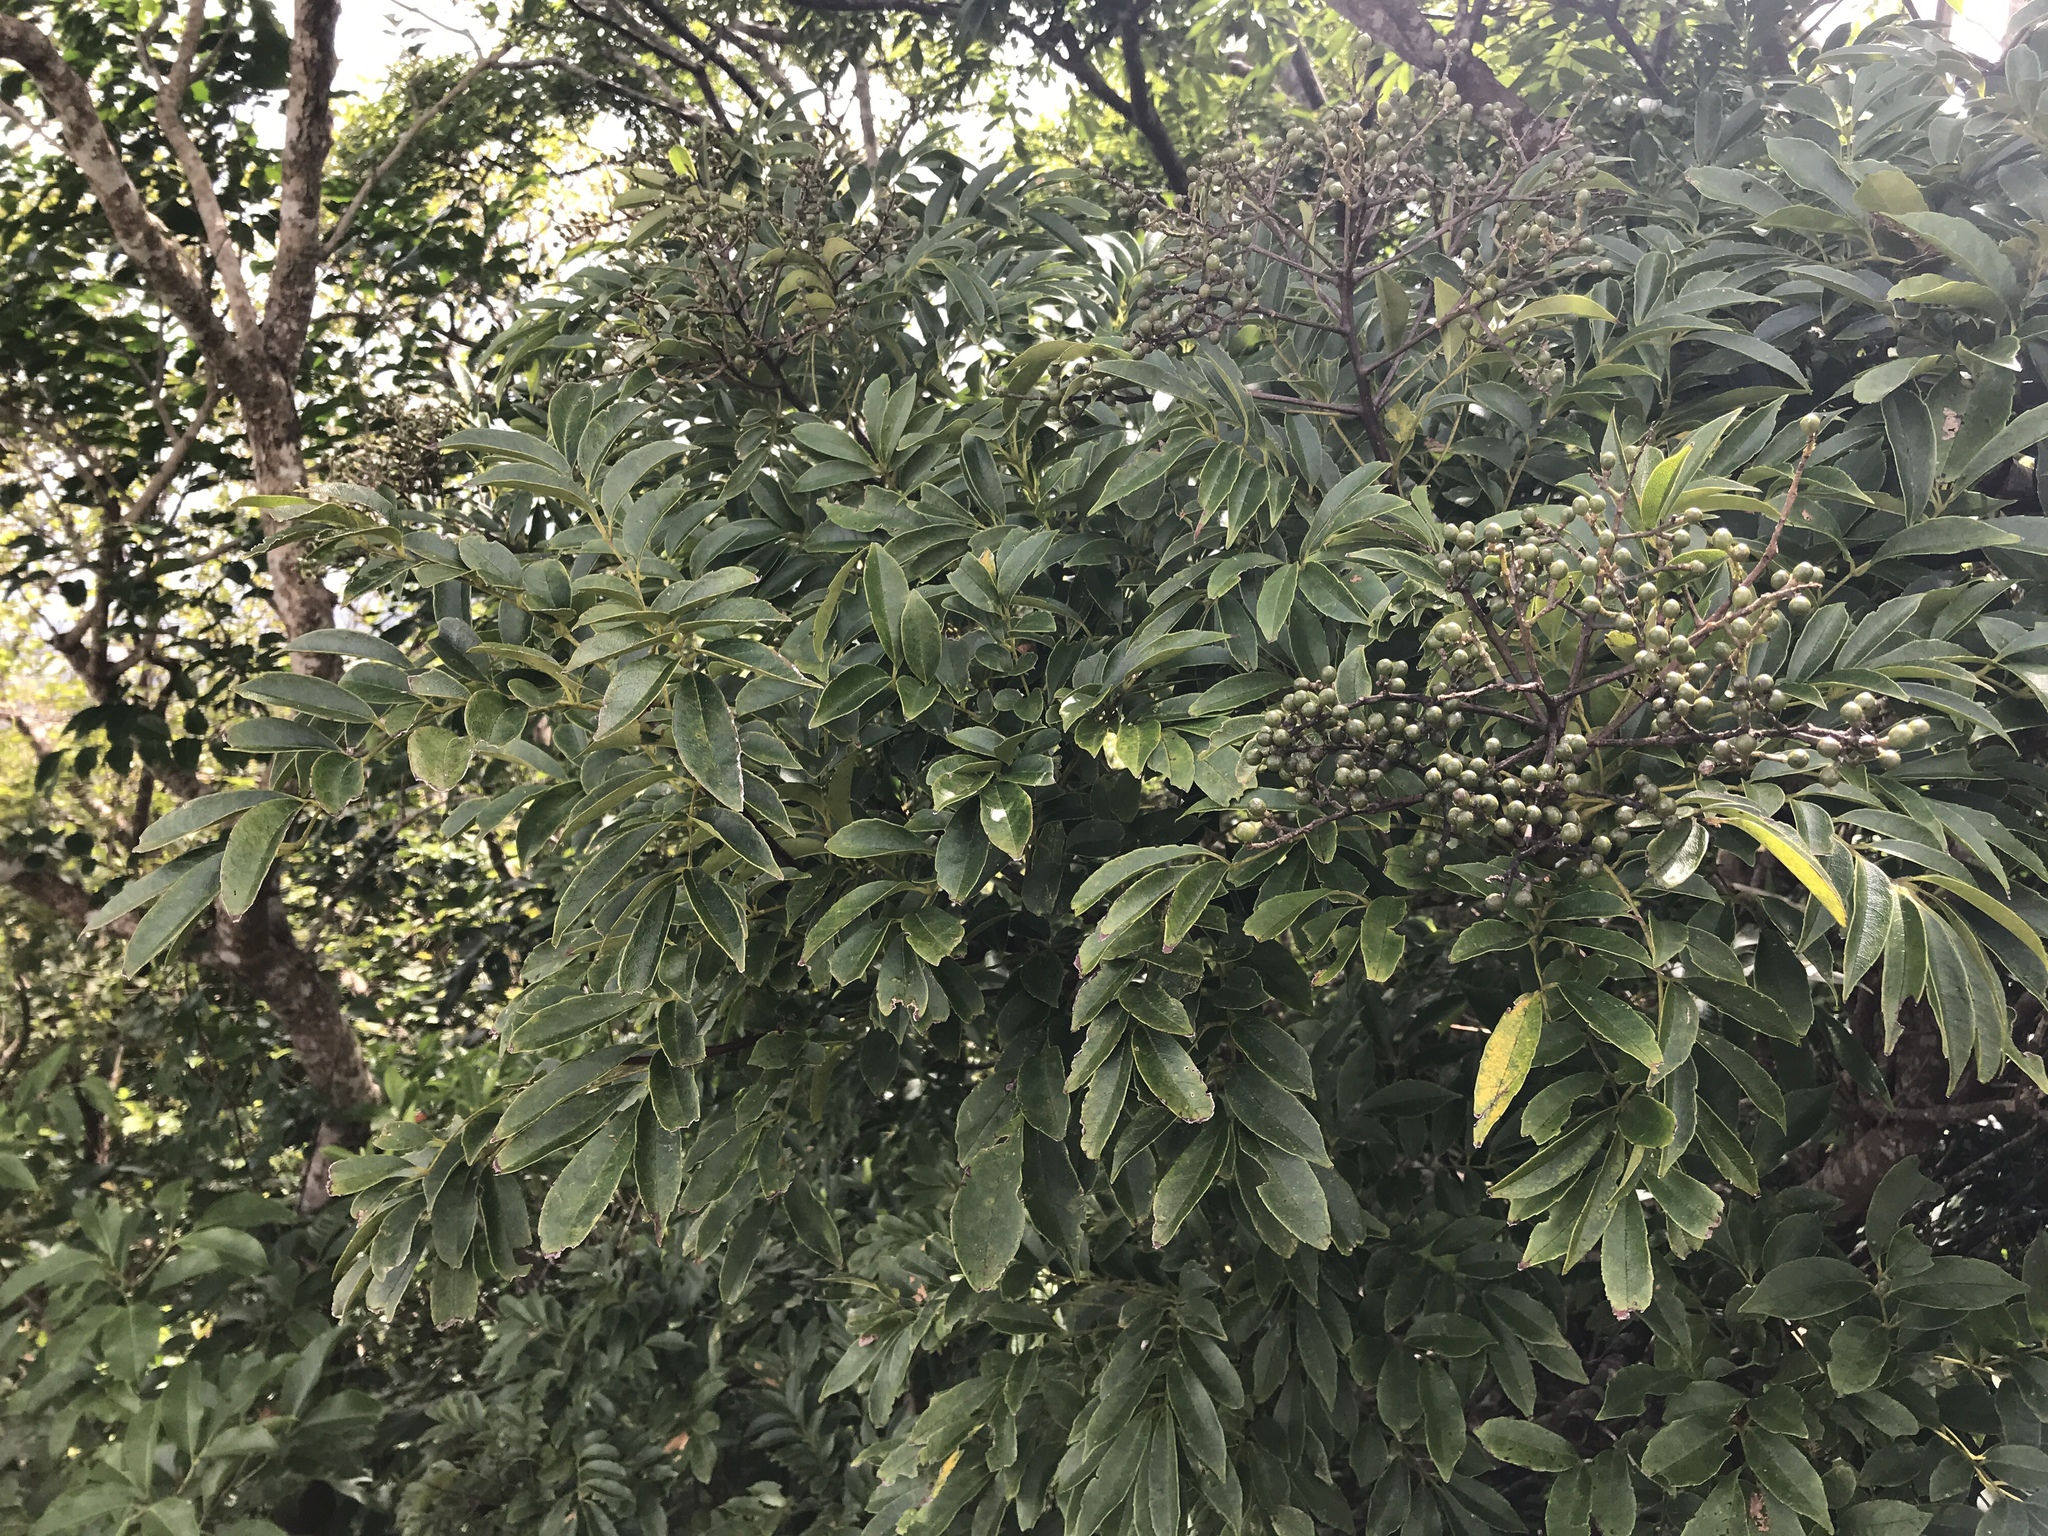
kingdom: Plantae
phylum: Tracheophyta
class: Magnoliopsida
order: Proteales
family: Sabiaceae
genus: Meliosma
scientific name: Meliosma oldhamii
